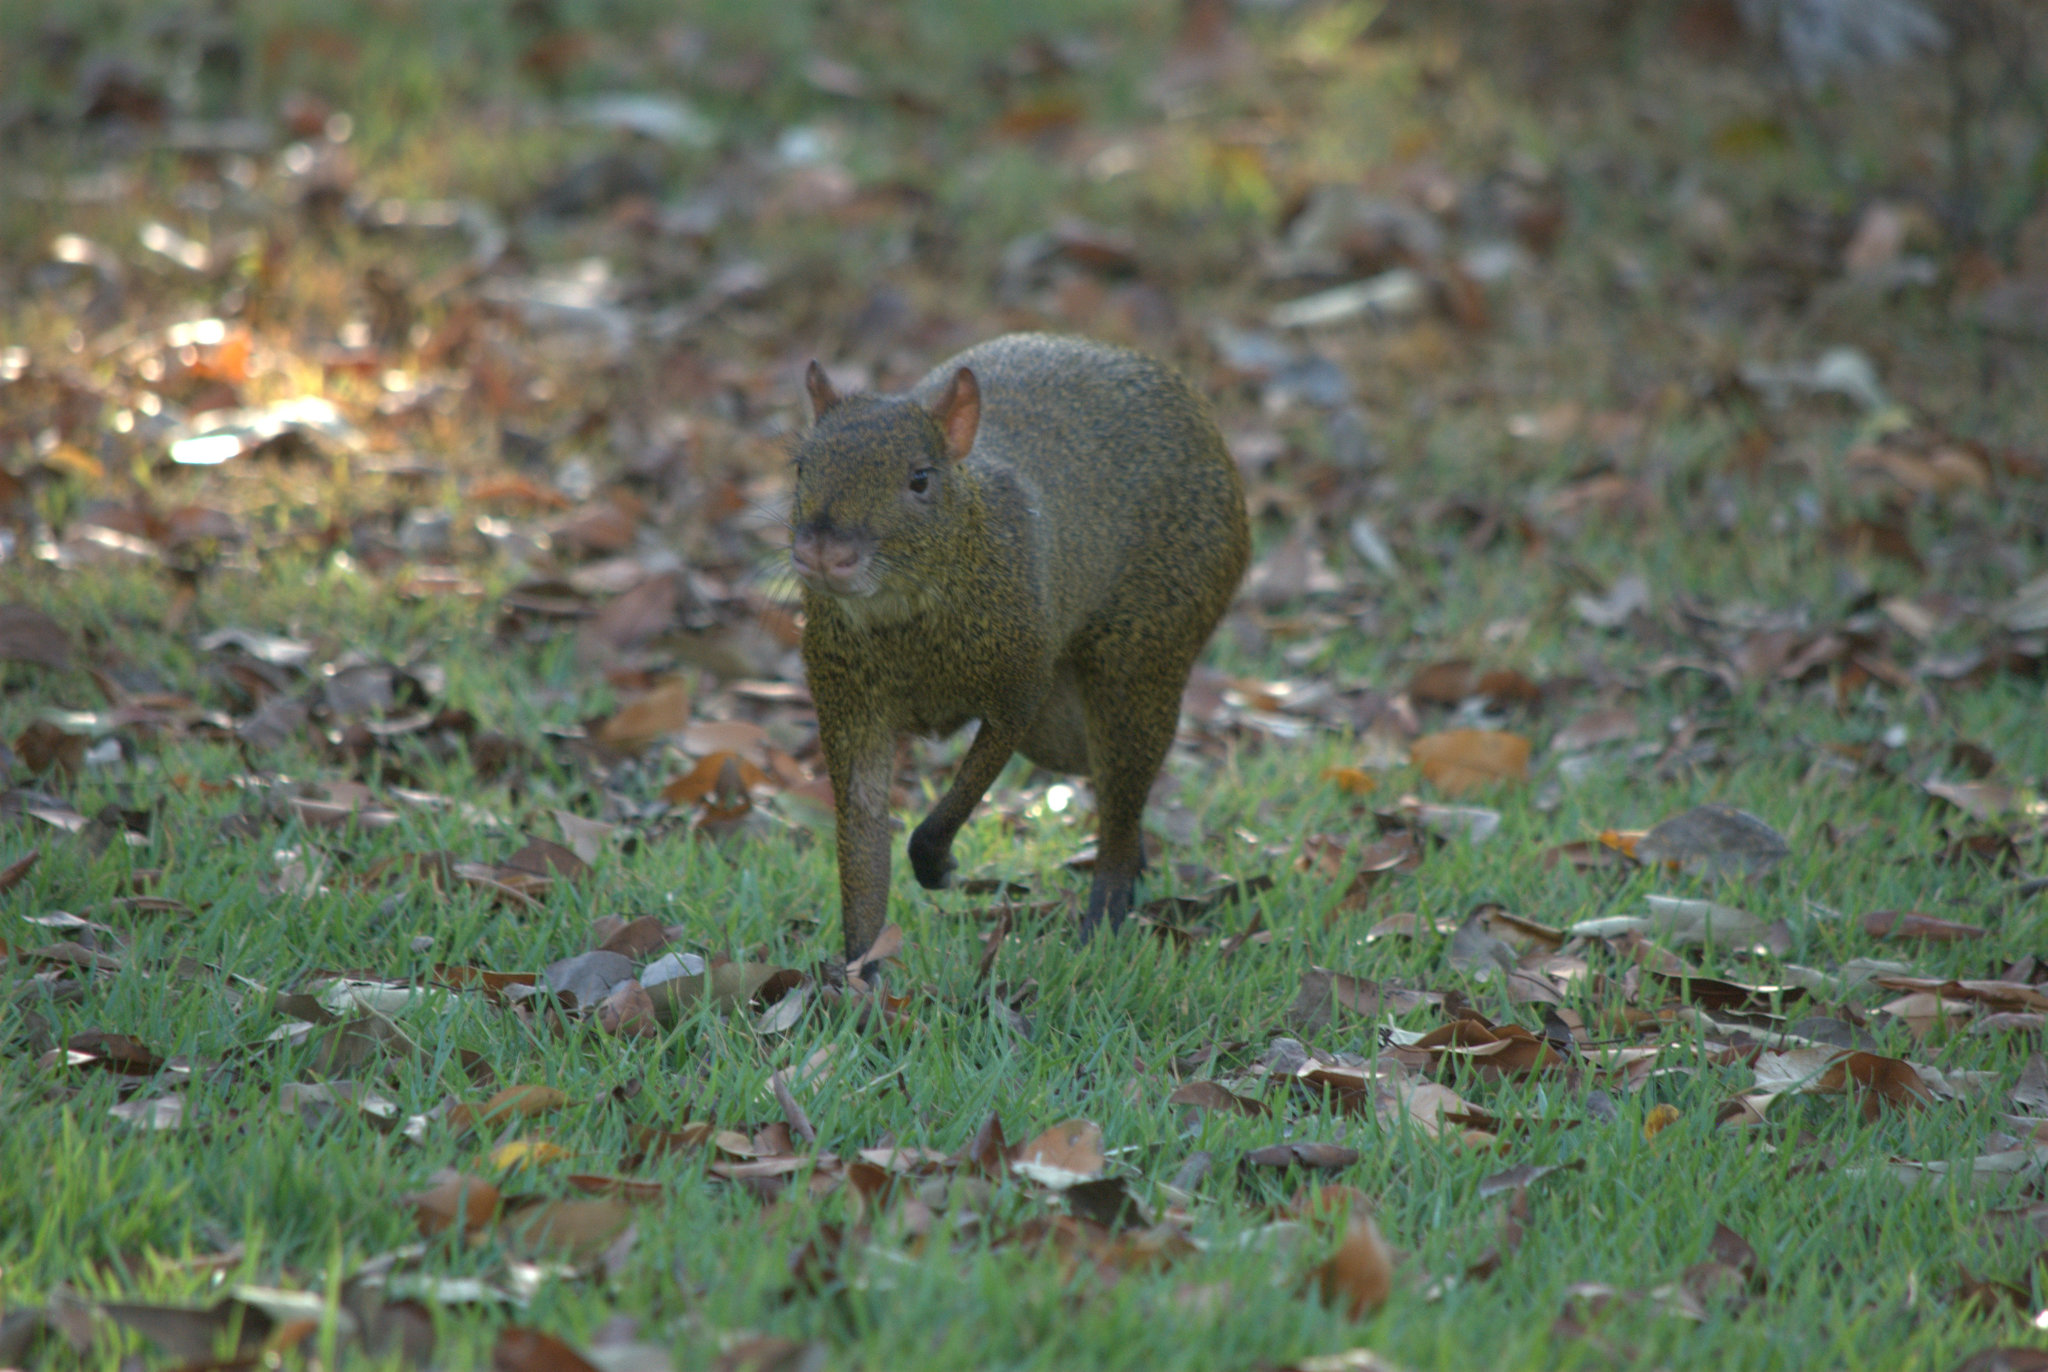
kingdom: Animalia
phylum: Chordata
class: Mammalia
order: Rodentia
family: Dasyproctidae
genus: Dasyprocta
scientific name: Dasyprocta punctata
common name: Central american agouti
